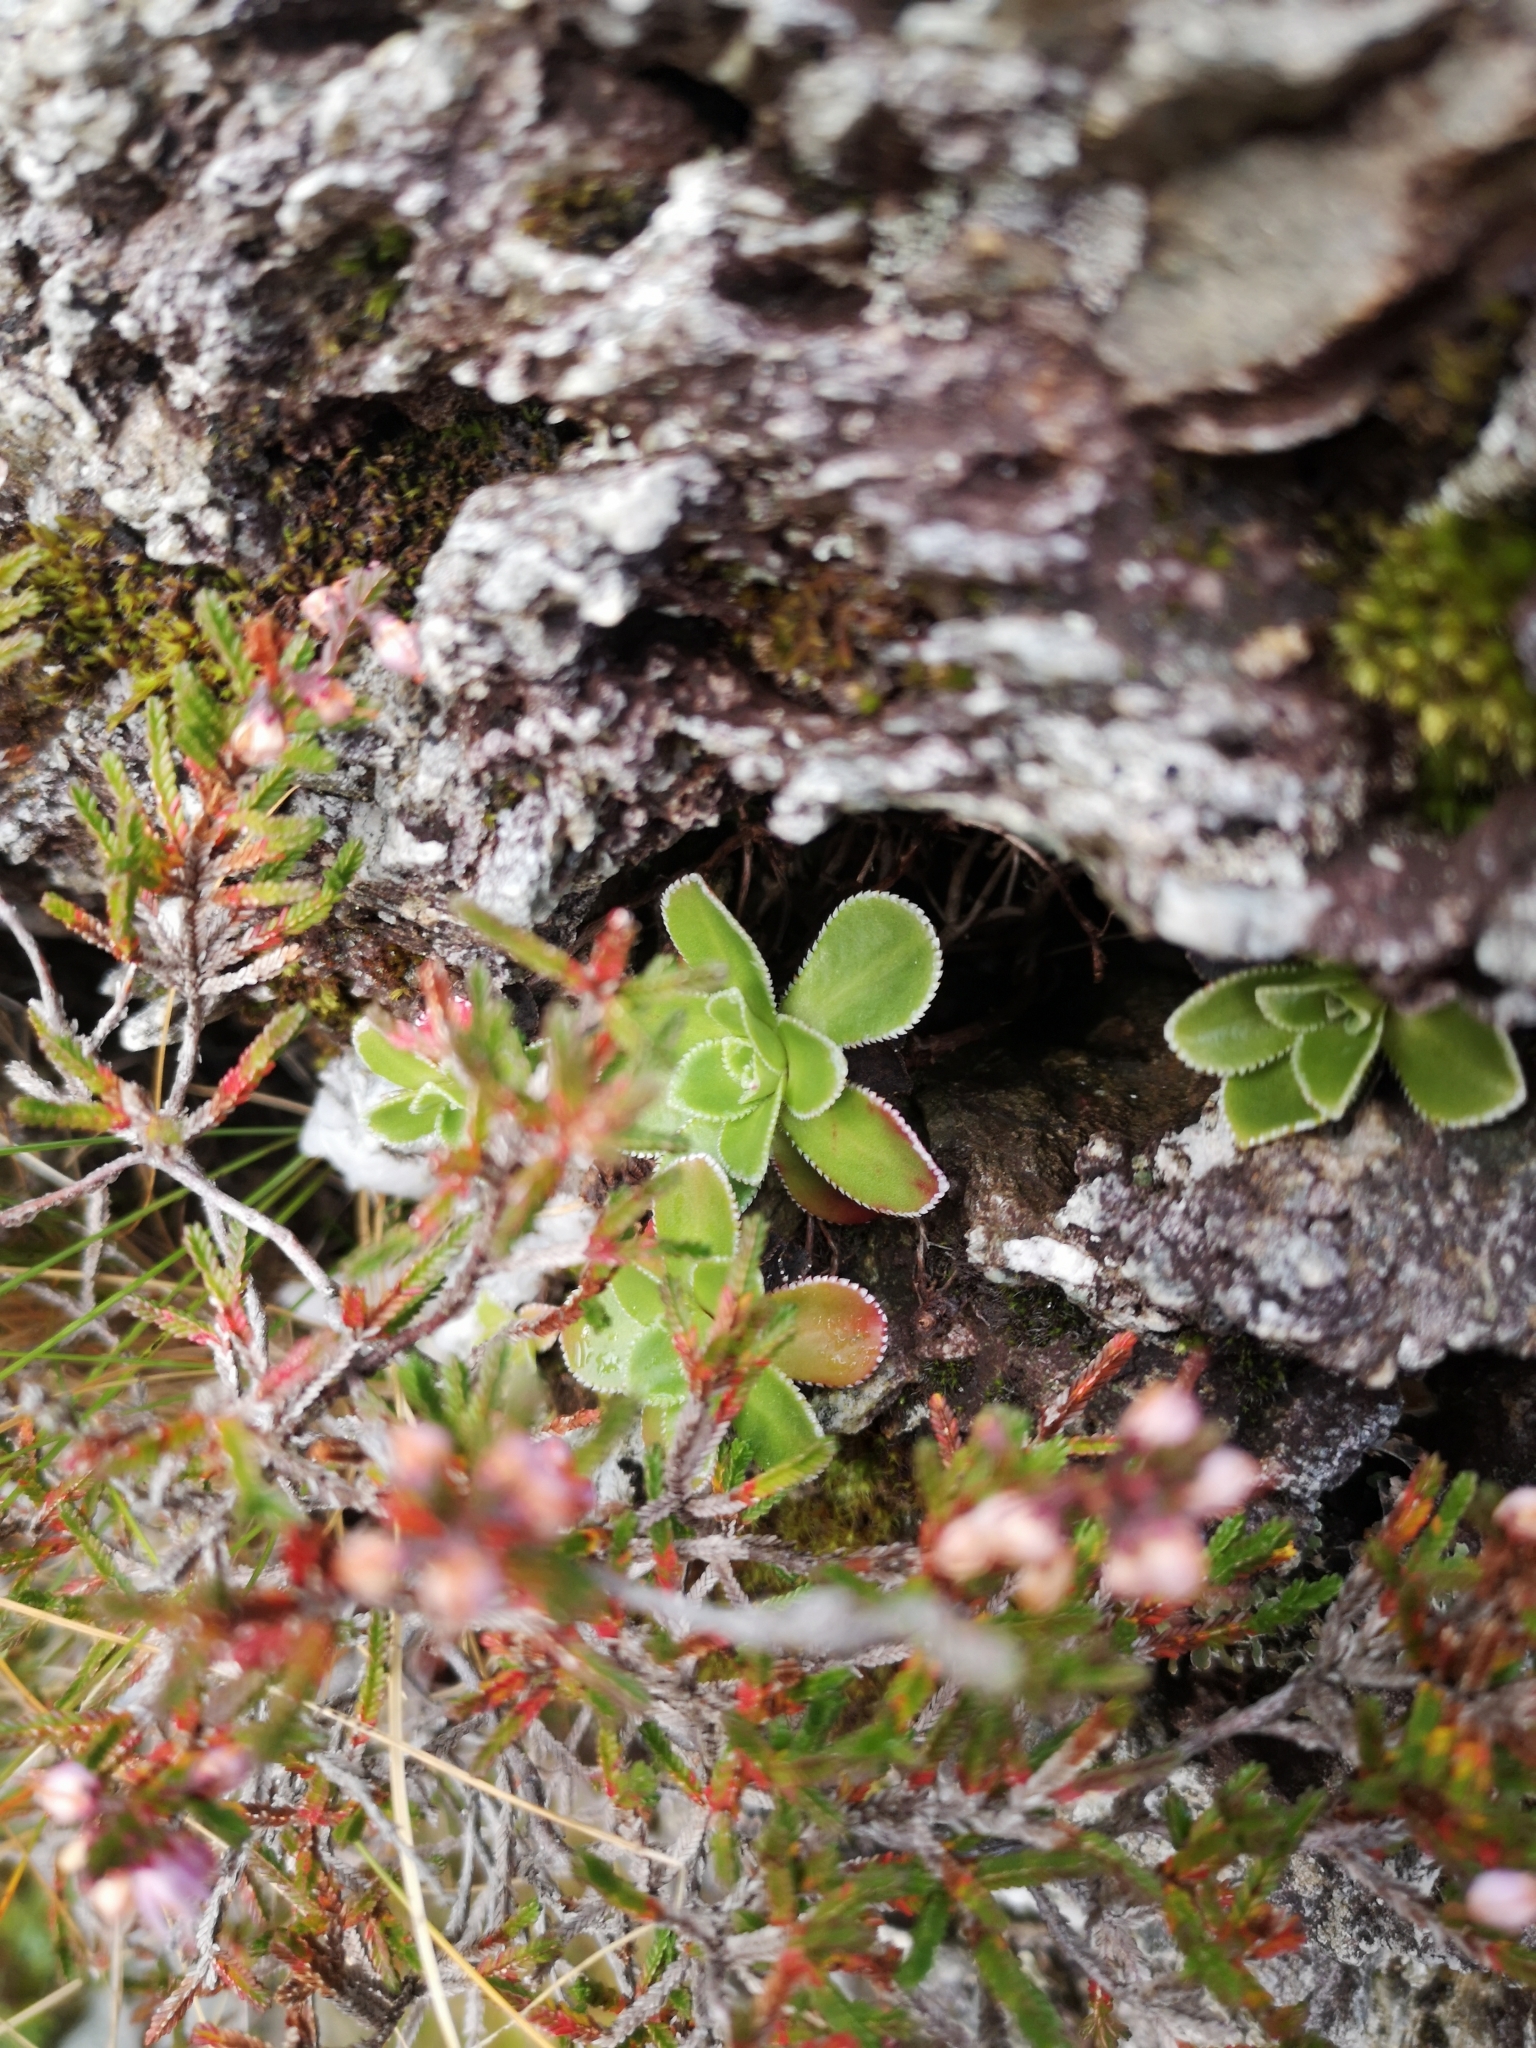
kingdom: Plantae
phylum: Tracheophyta
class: Magnoliopsida
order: Saxifragales
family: Saxifragaceae
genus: Saxifraga
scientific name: Saxifraga cotyledon
